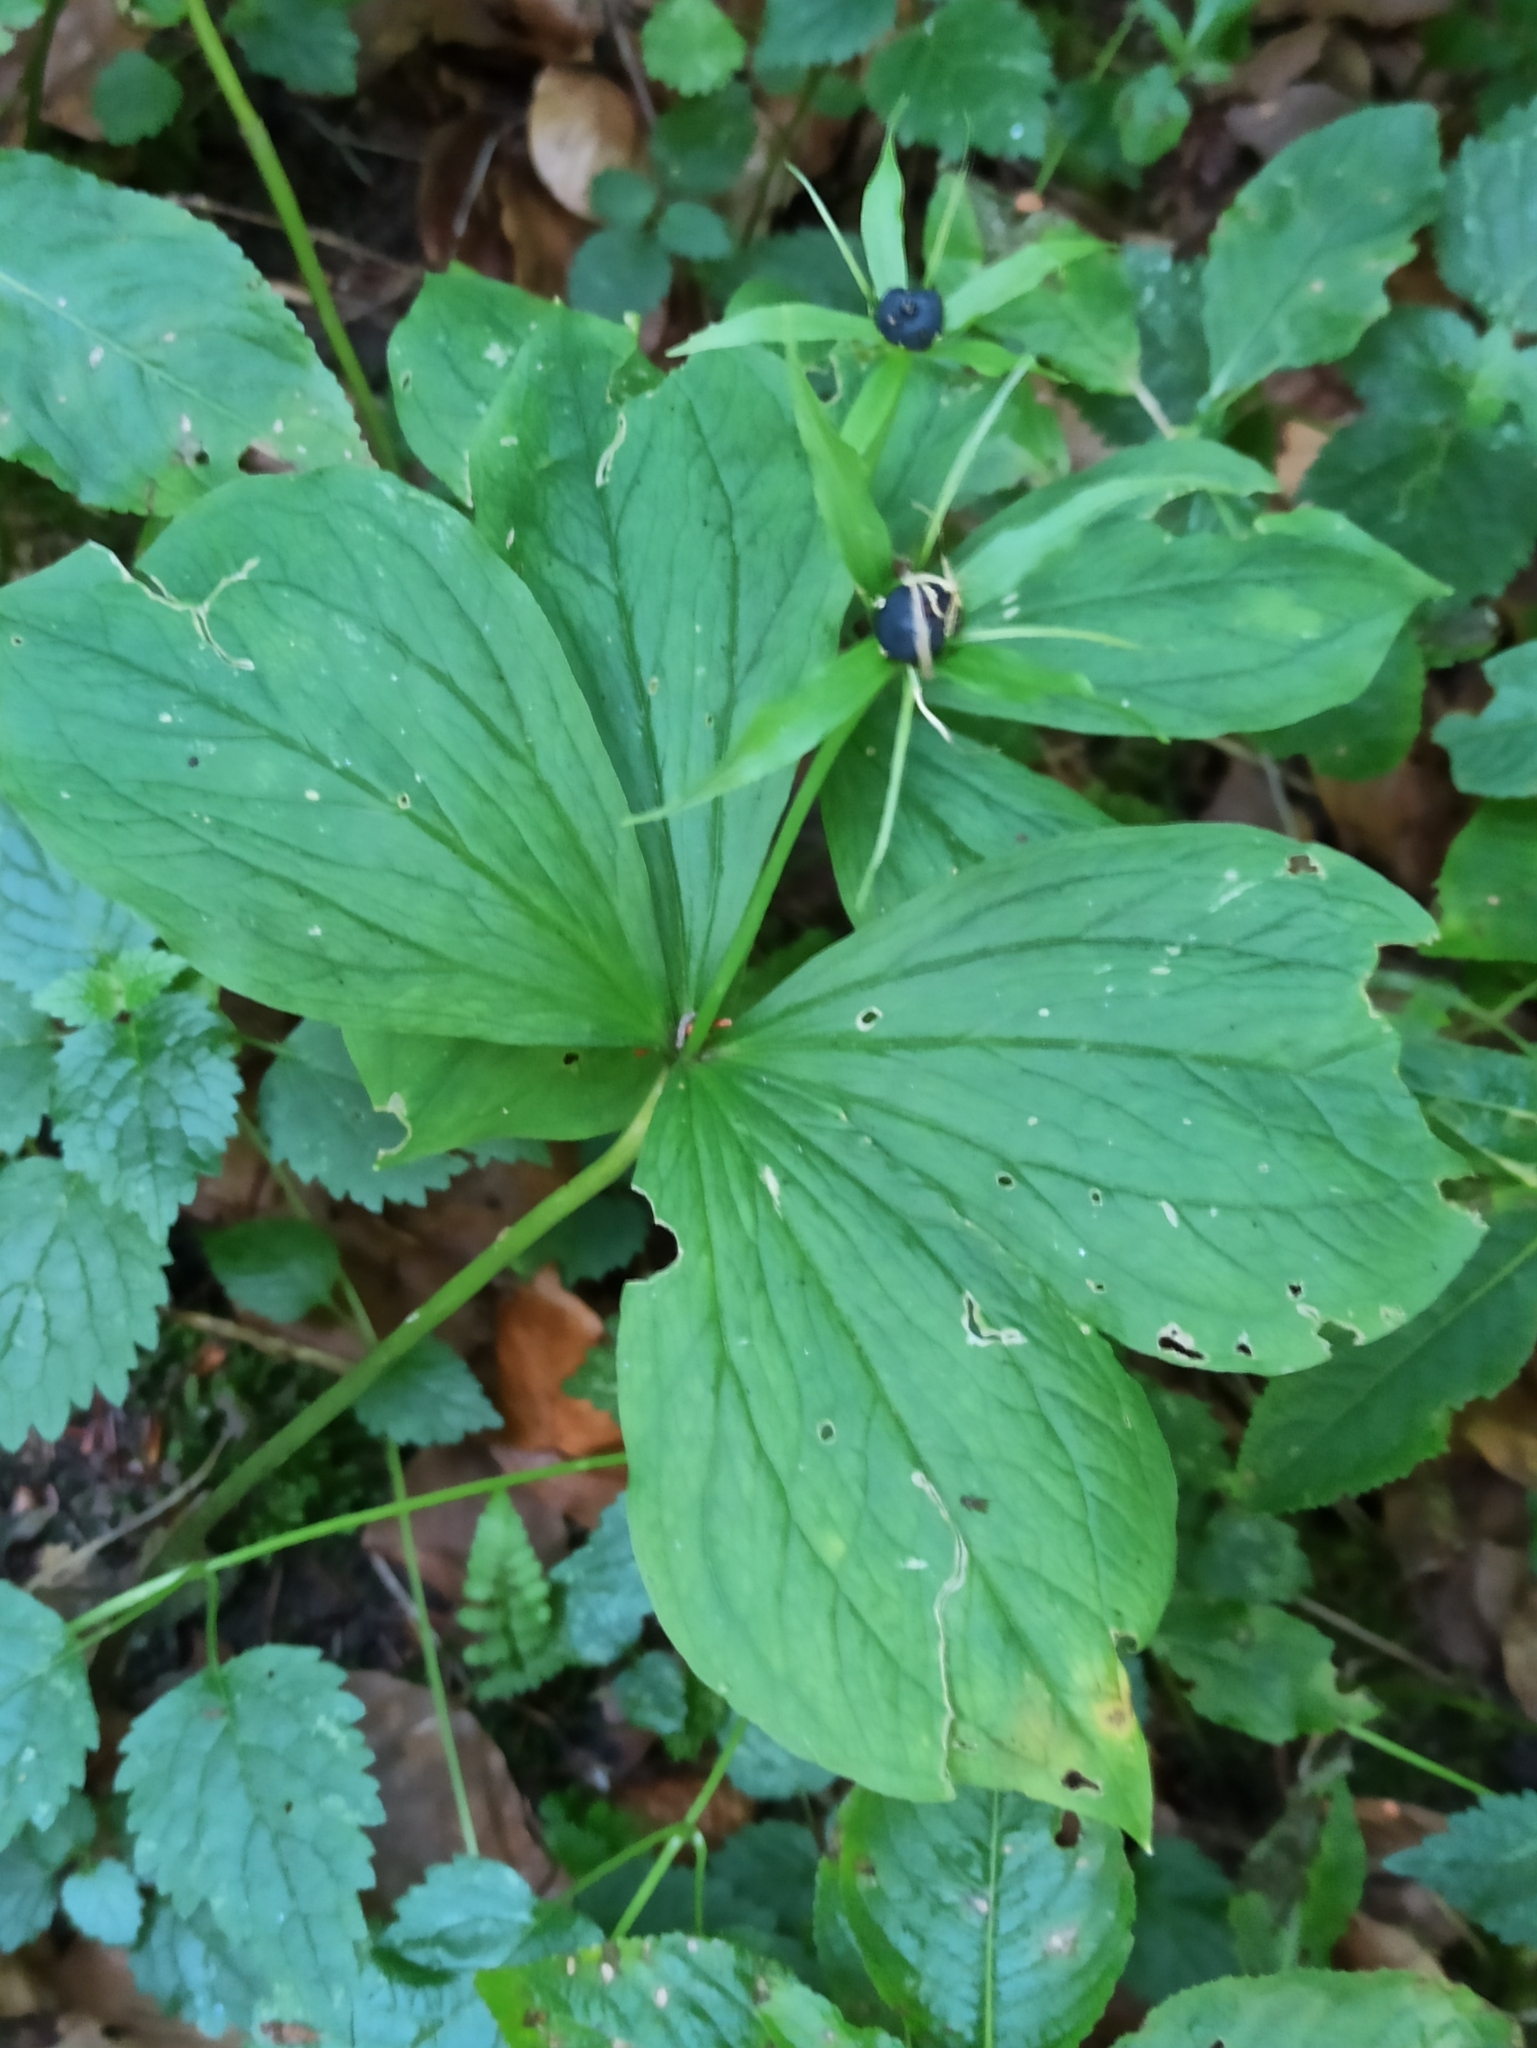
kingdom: Plantae
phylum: Tracheophyta
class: Liliopsida
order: Liliales
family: Melanthiaceae
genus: Paris
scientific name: Paris quadrifolia
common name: Herb-paris
